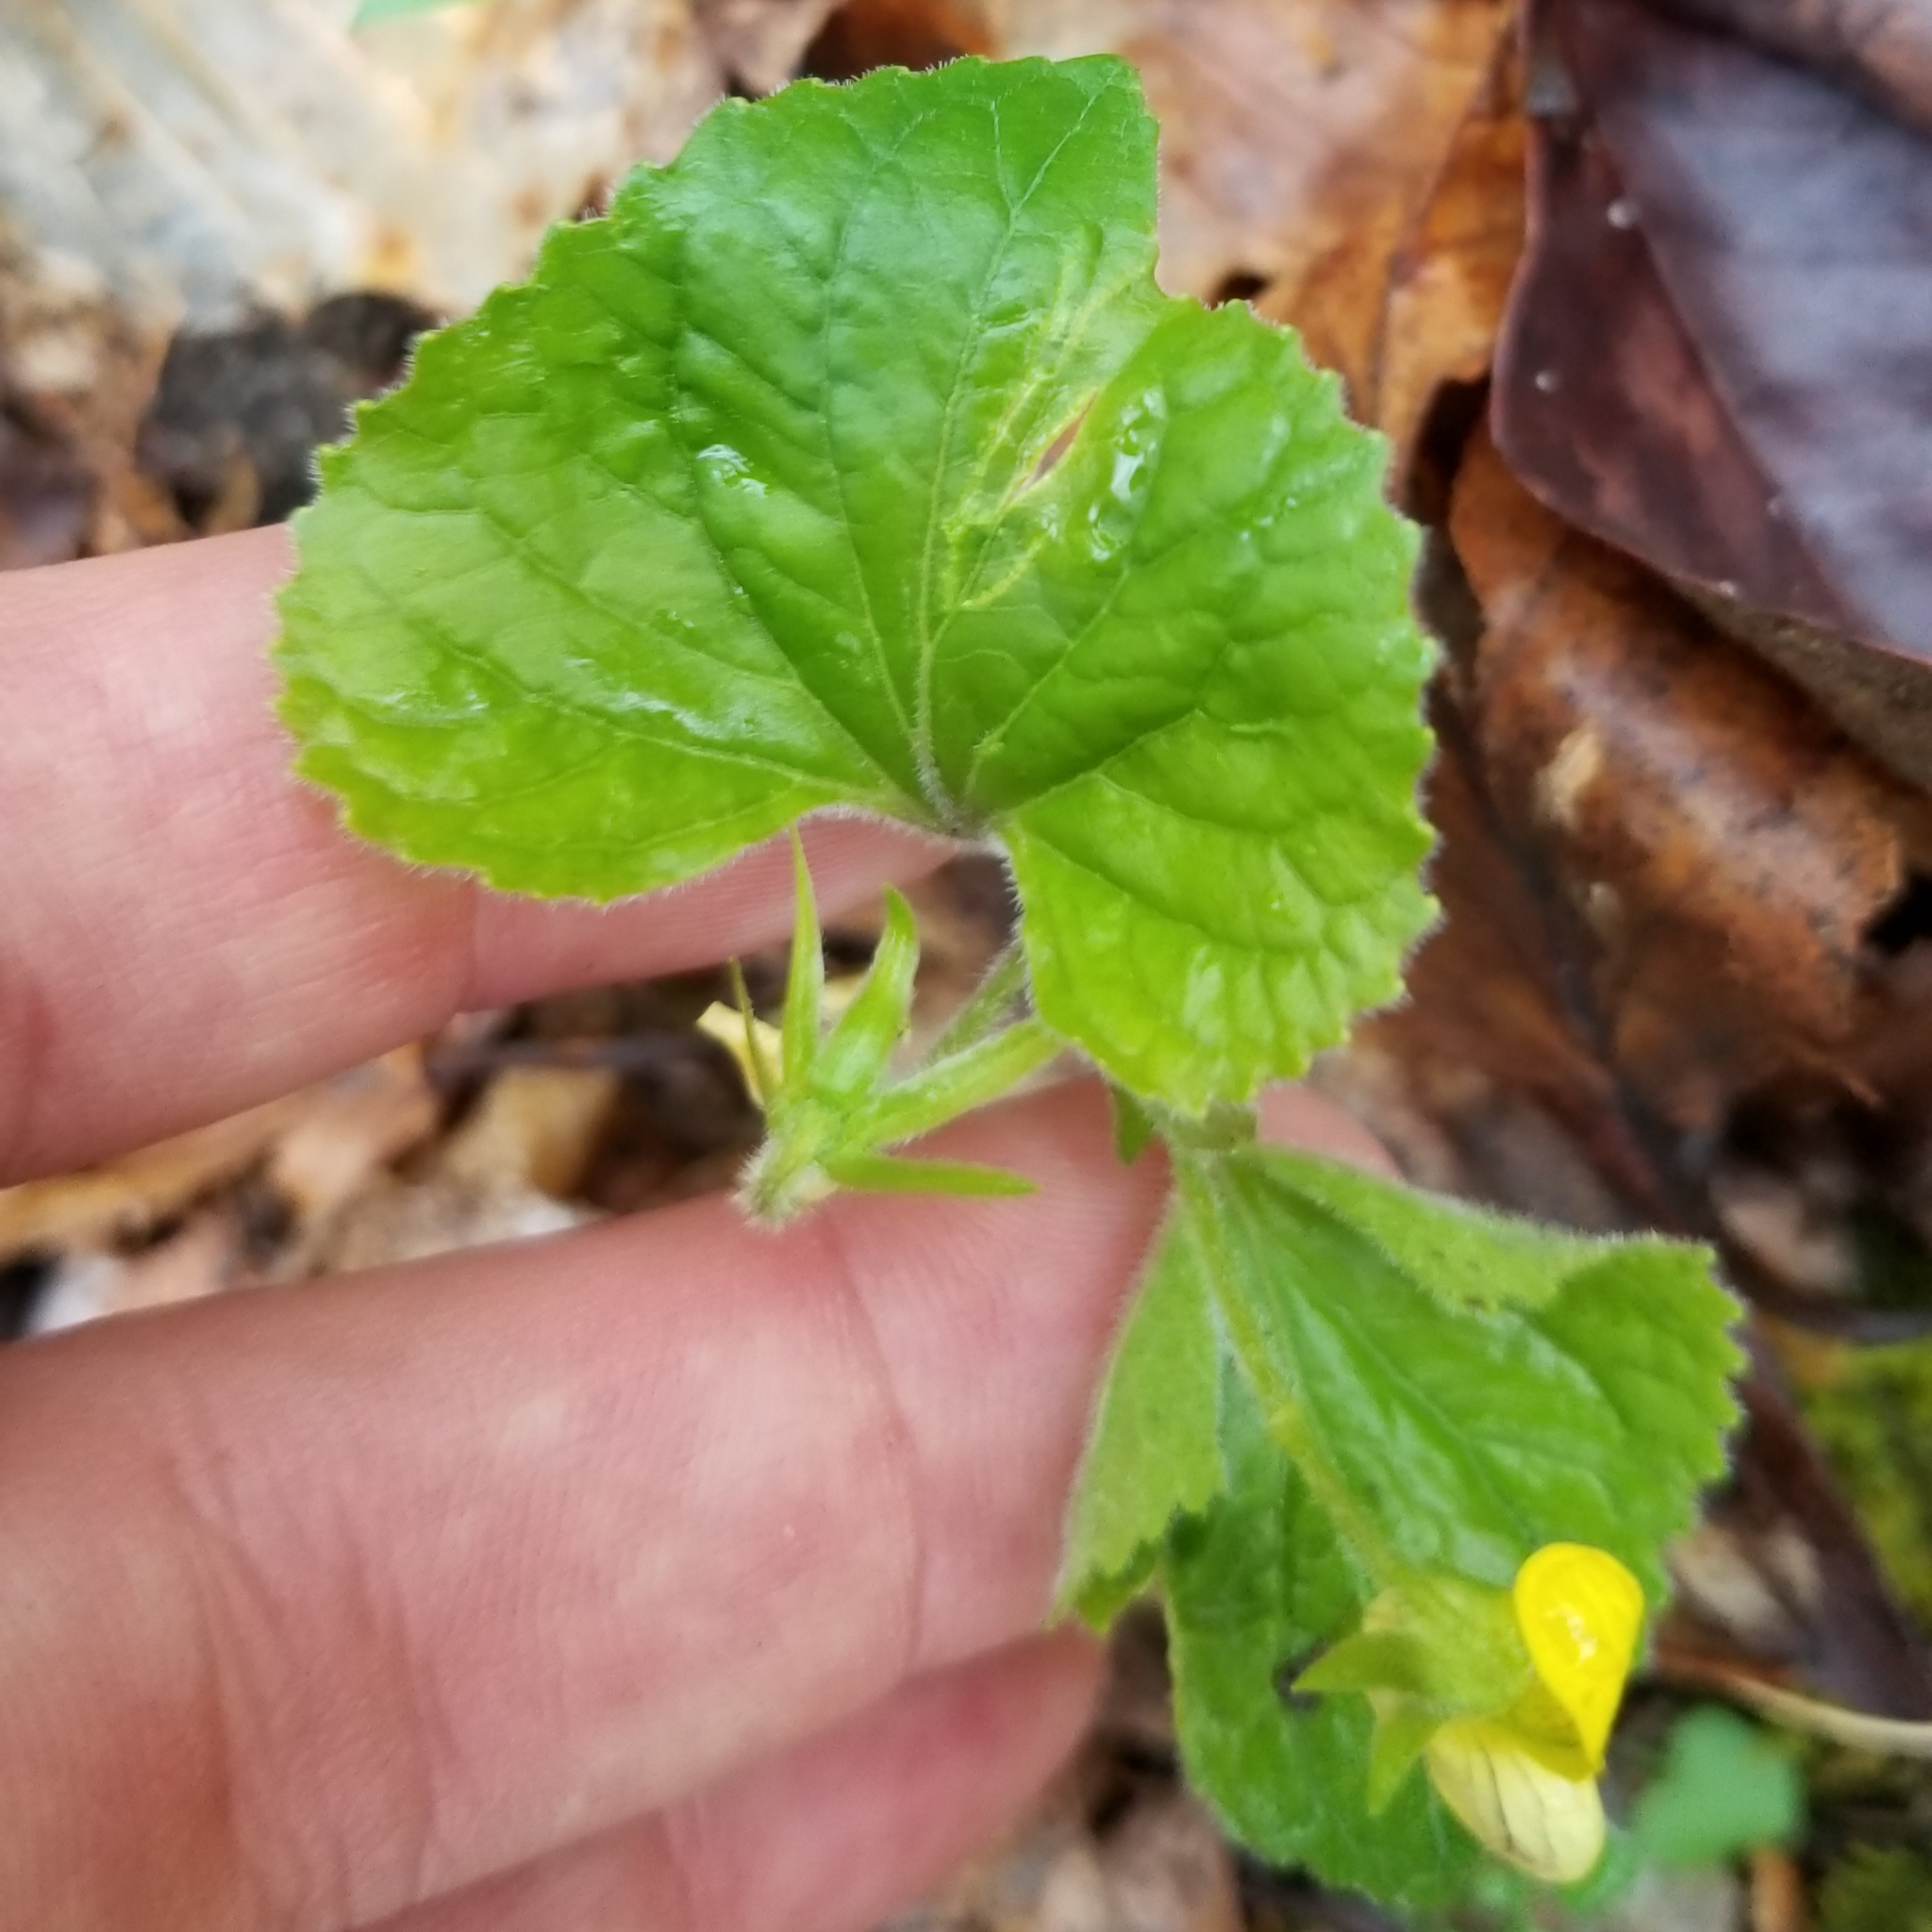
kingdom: Plantae
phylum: Tracheophyta
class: Magnoliopsida
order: Malpighiales
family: Violaceae
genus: Viola
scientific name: Viola pubescens
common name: Yellow forest violet
